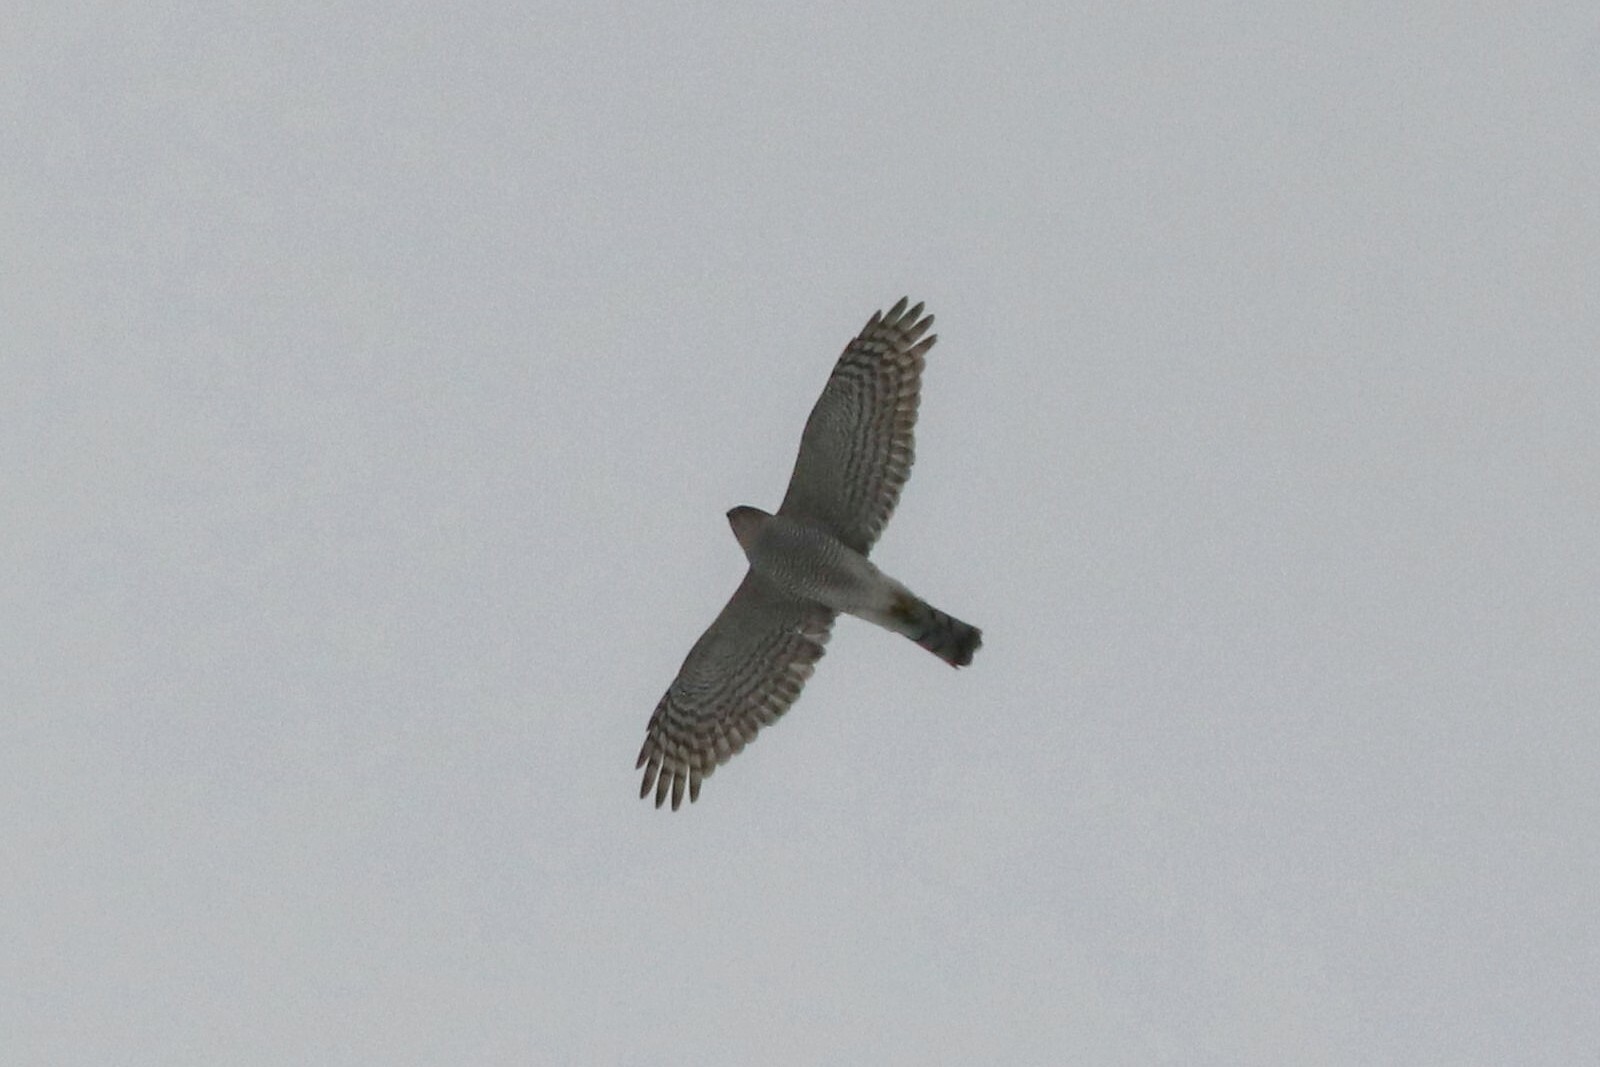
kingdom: Animalia
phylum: Chordata
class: Aves
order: Accipitriformes
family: Accipitridae
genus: Accipiter
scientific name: Accipiter nisus
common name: Eurasian sparrowhawk
